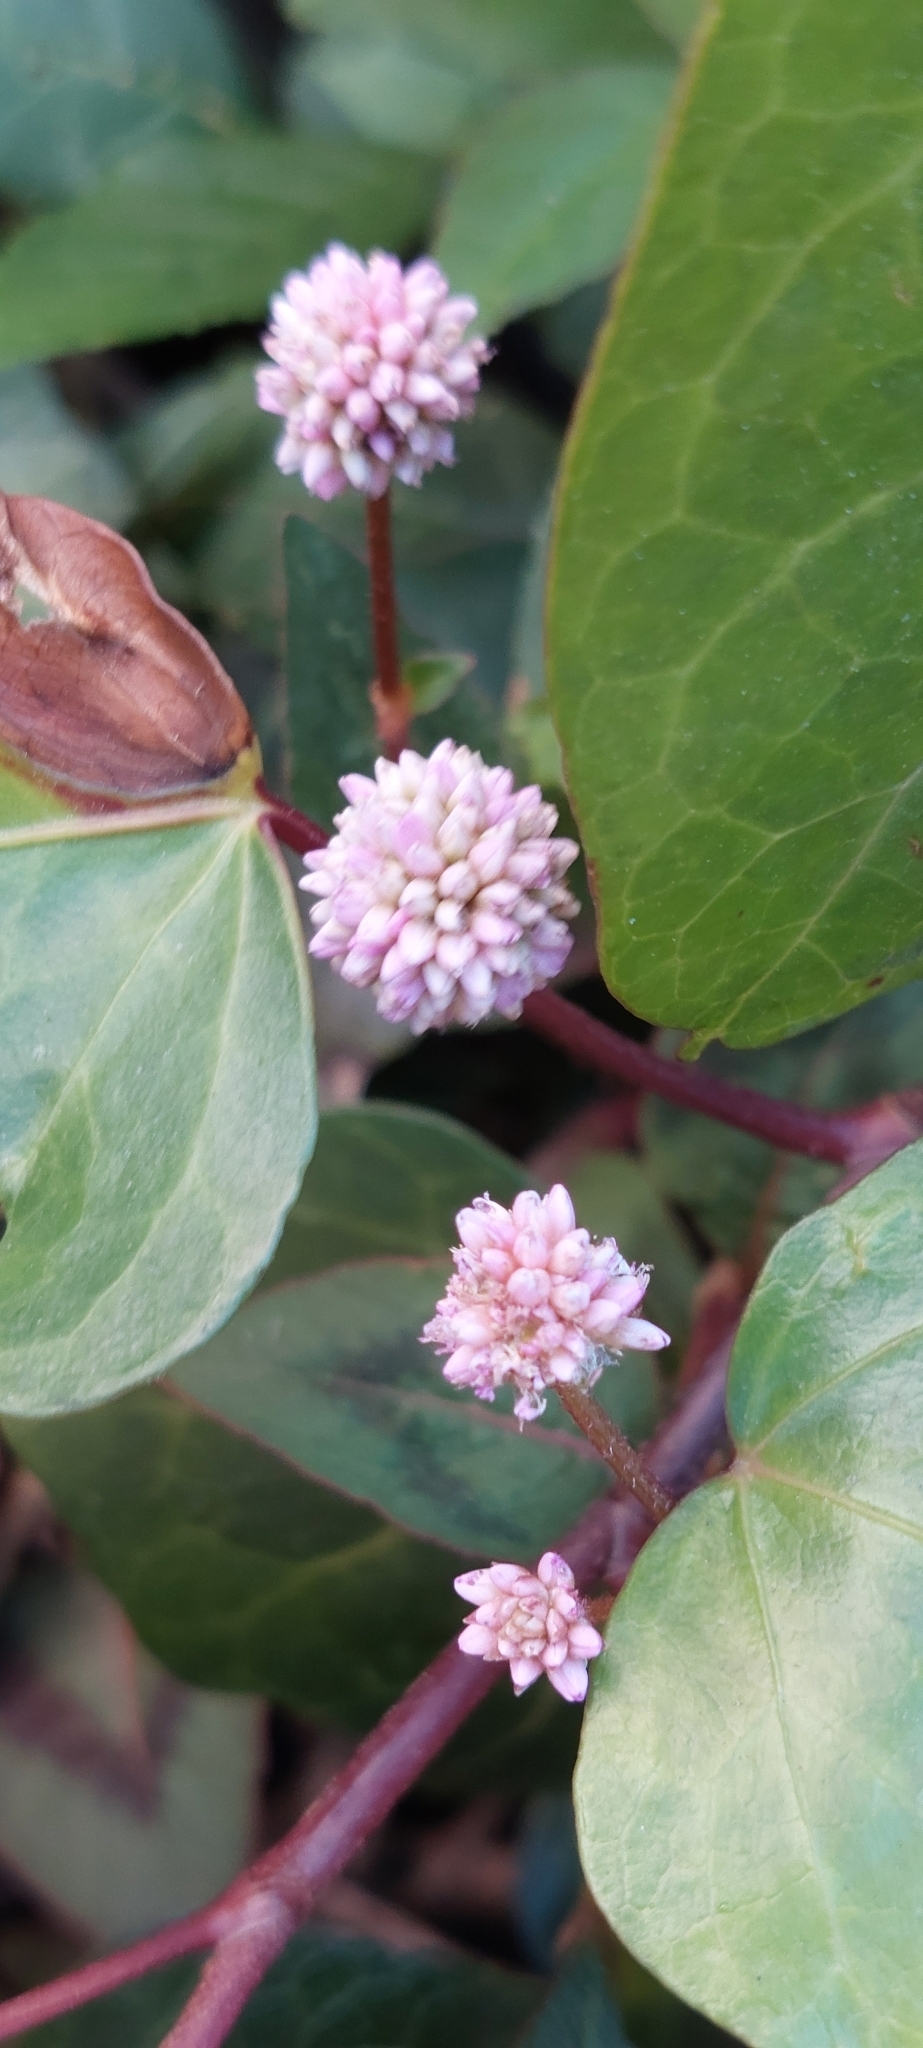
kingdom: Plantae
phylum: Tracheophyta
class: Magnoliopsida
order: Caryophyllales
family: Polygonaceae
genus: Persicaria
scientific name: Persicaria capitata
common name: Pinkhead smartweed
